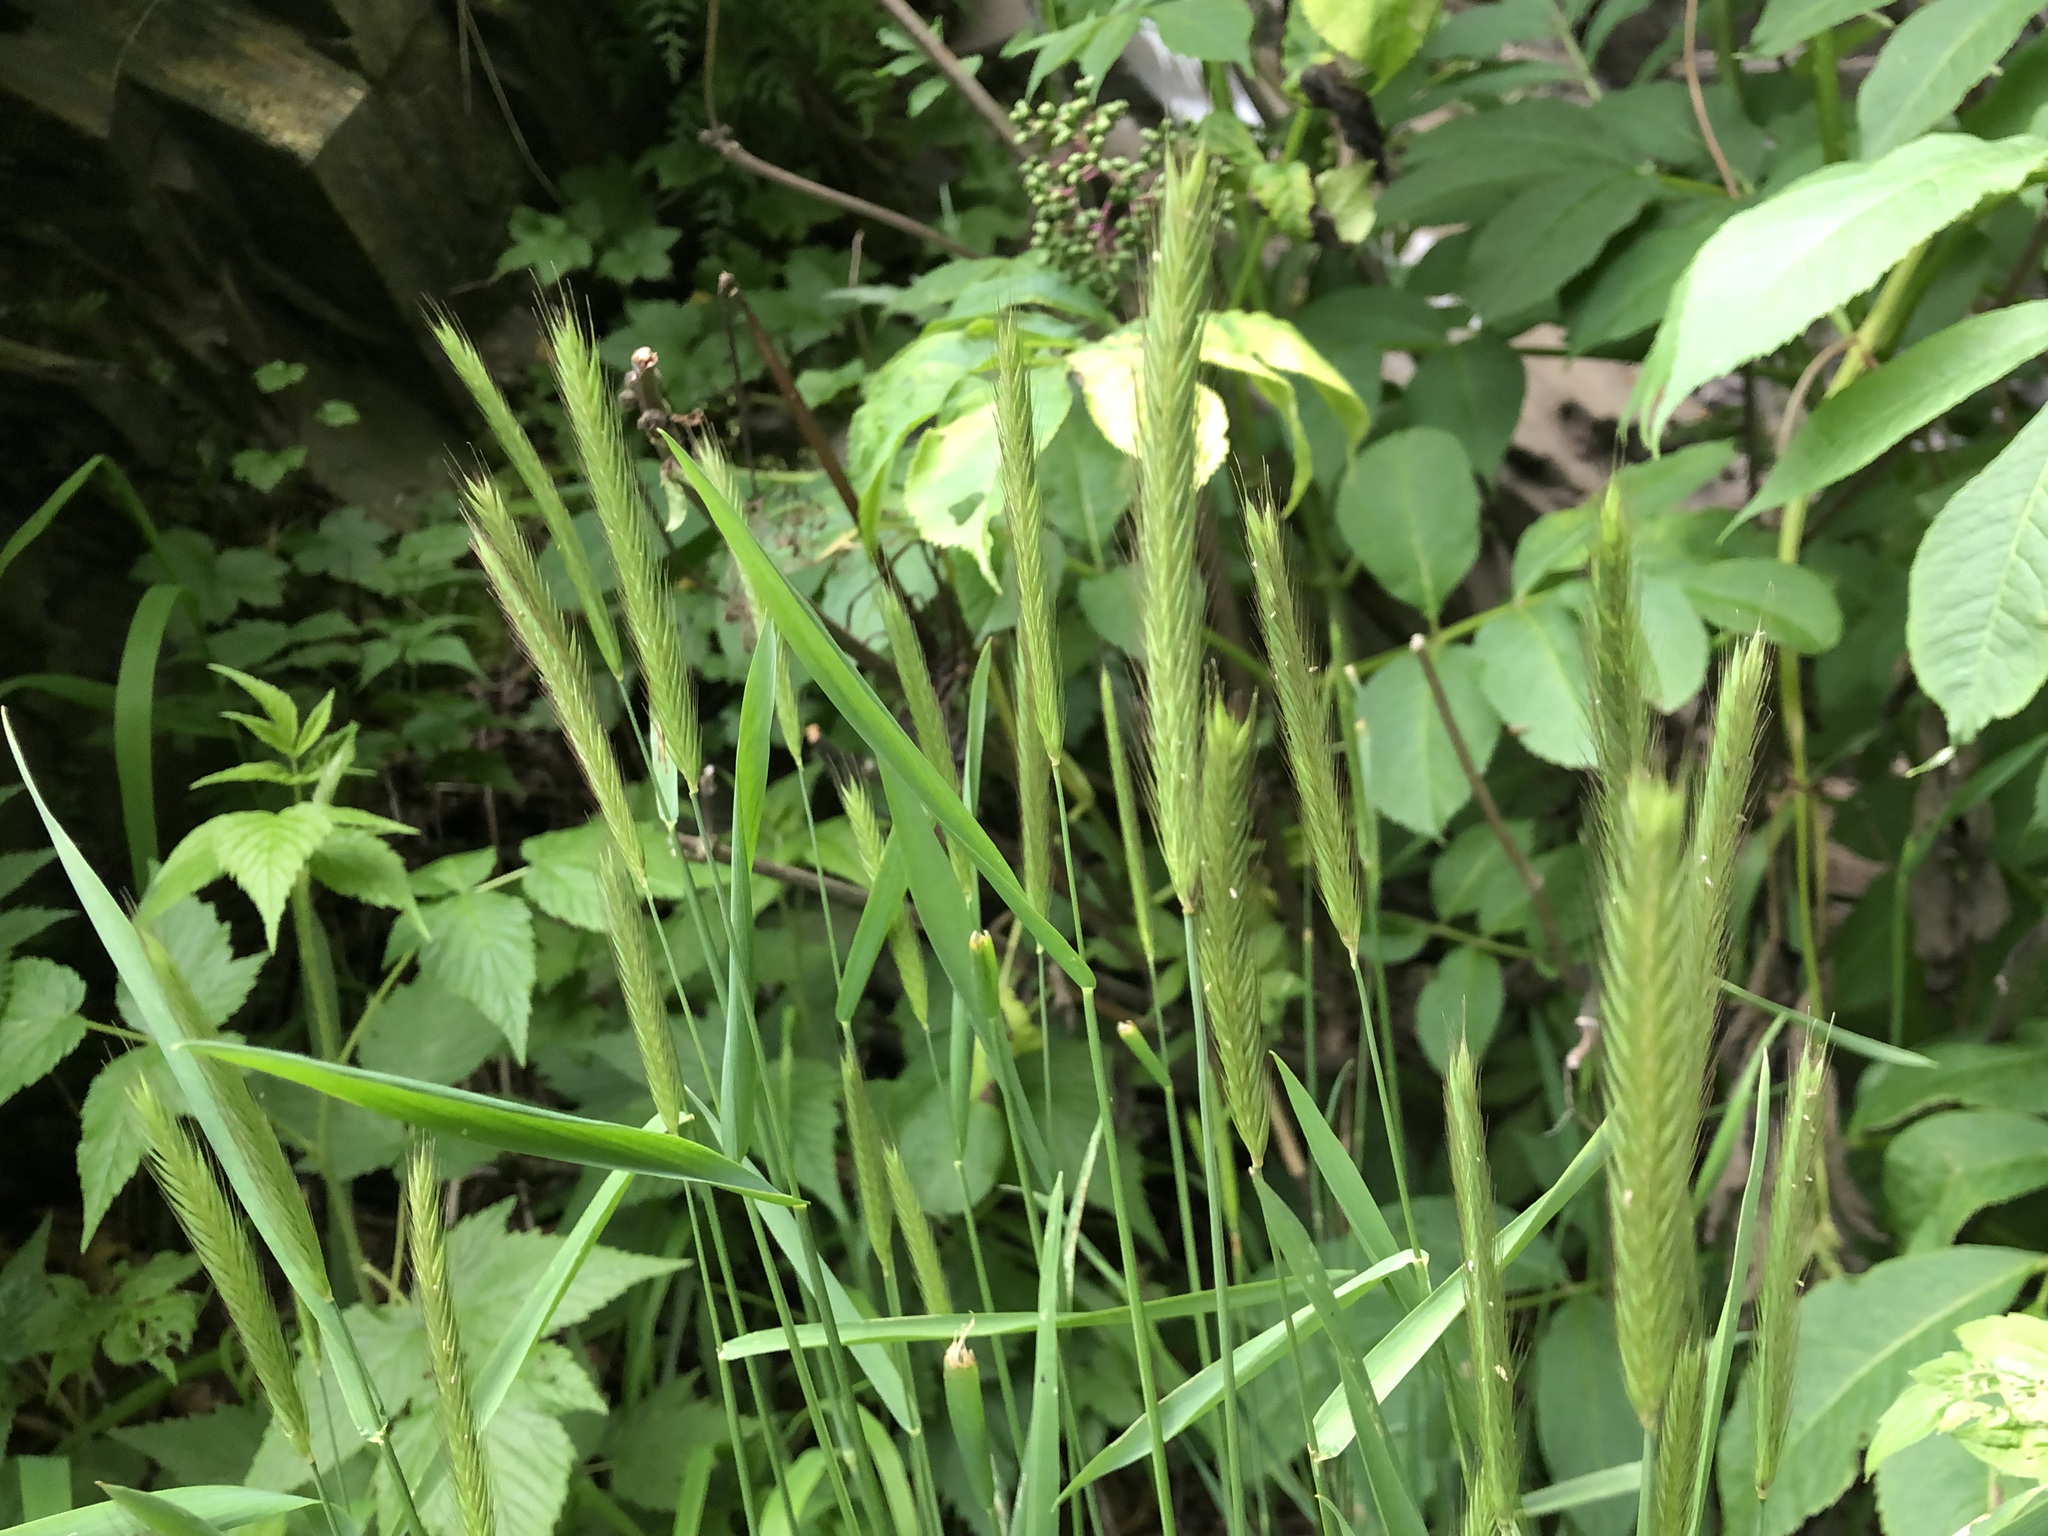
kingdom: Plantae
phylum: Tracheophyta
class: Liliopsida
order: Poales
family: Poaceae
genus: Hordeum
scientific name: Hordeum brachyantherum
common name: Meadow barley
